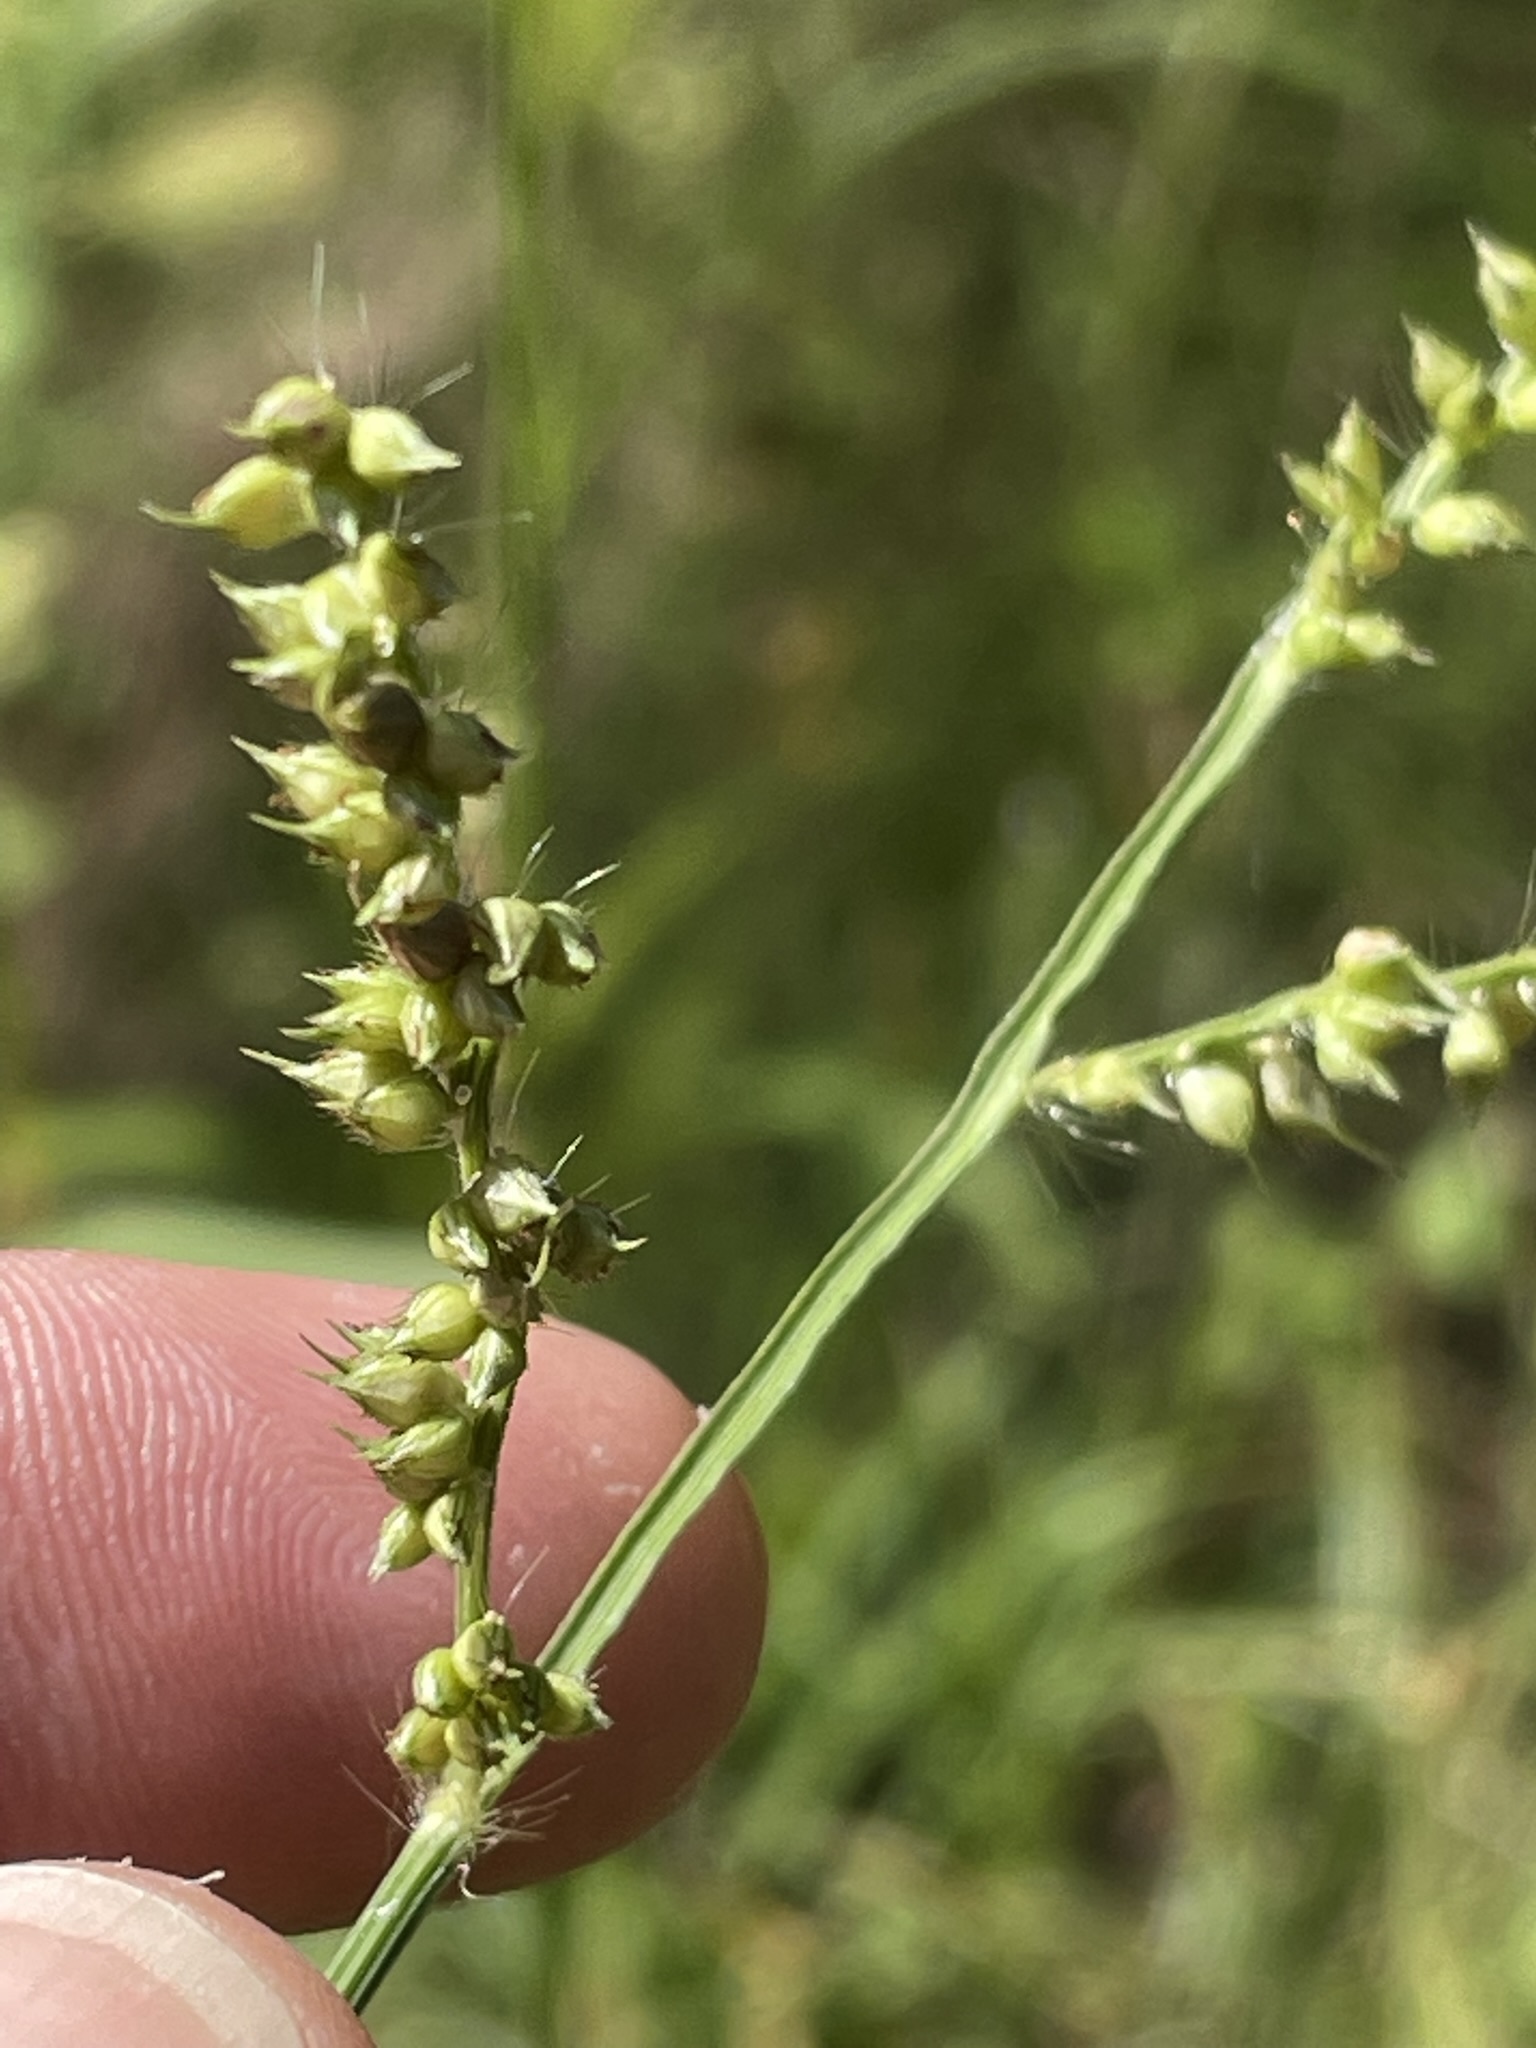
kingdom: Plantae
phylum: Tracheophyta
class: Liliopsida
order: Poales
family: Poaceae
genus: Echinochloa
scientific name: Echinochloa crus-galli
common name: Cockspur
